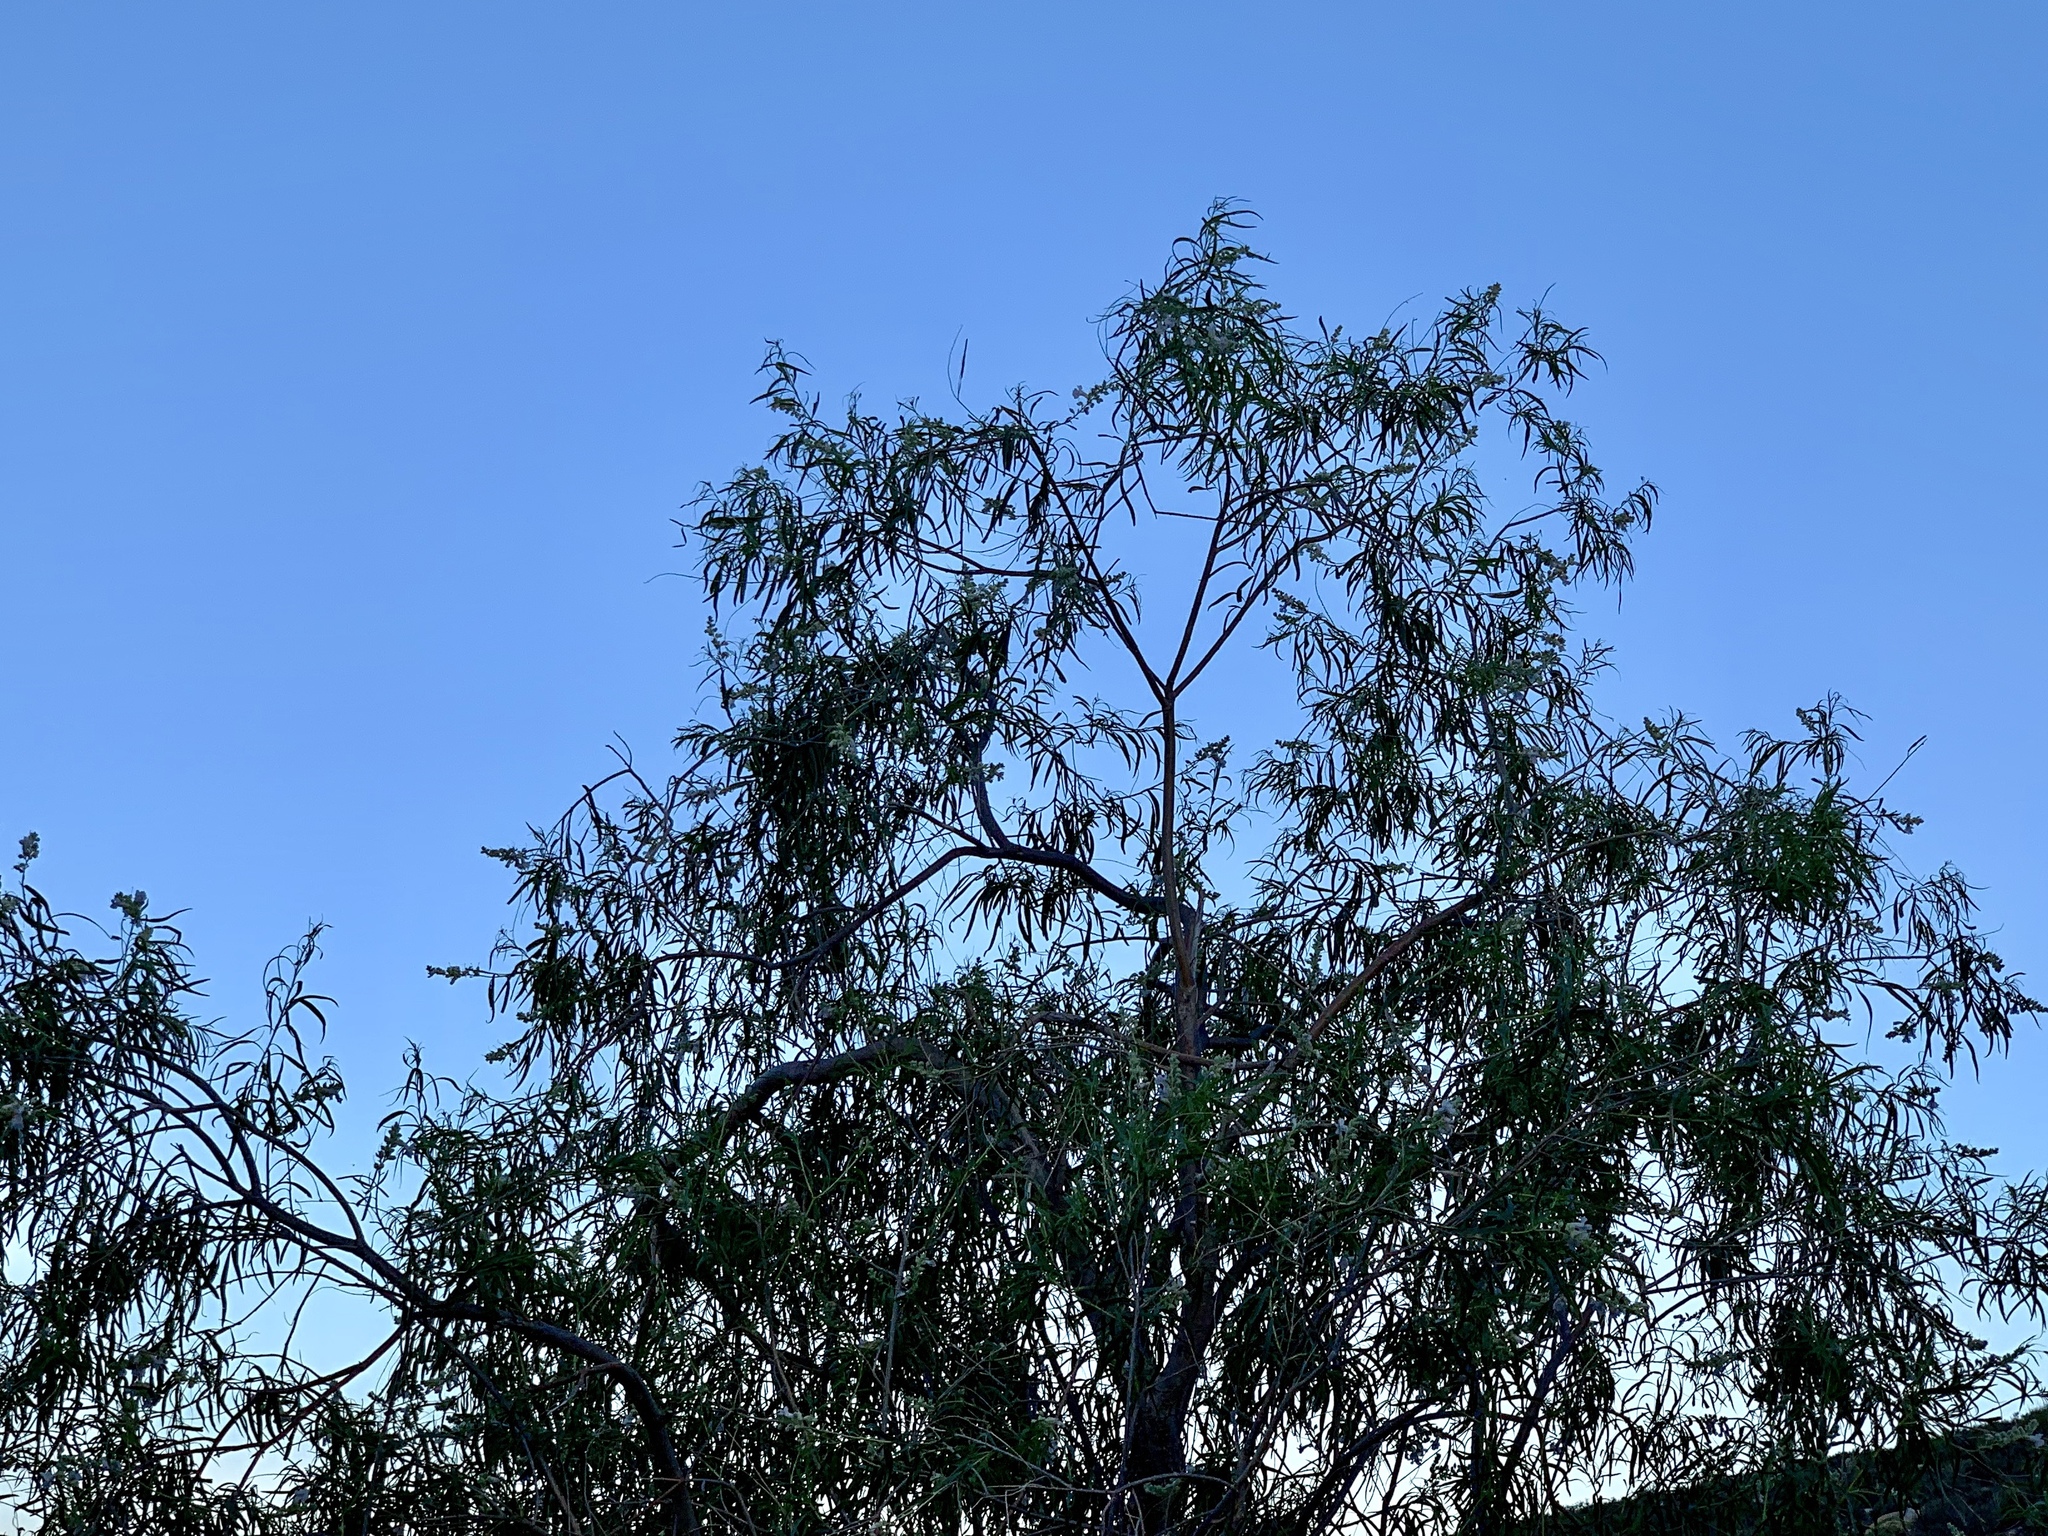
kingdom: Plantae
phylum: Tracheophyta
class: Magnoliopsida
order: Lamiales
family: Bignoniaceae
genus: Chilopsis
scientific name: Chilopsis linearis
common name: Desert-willow
